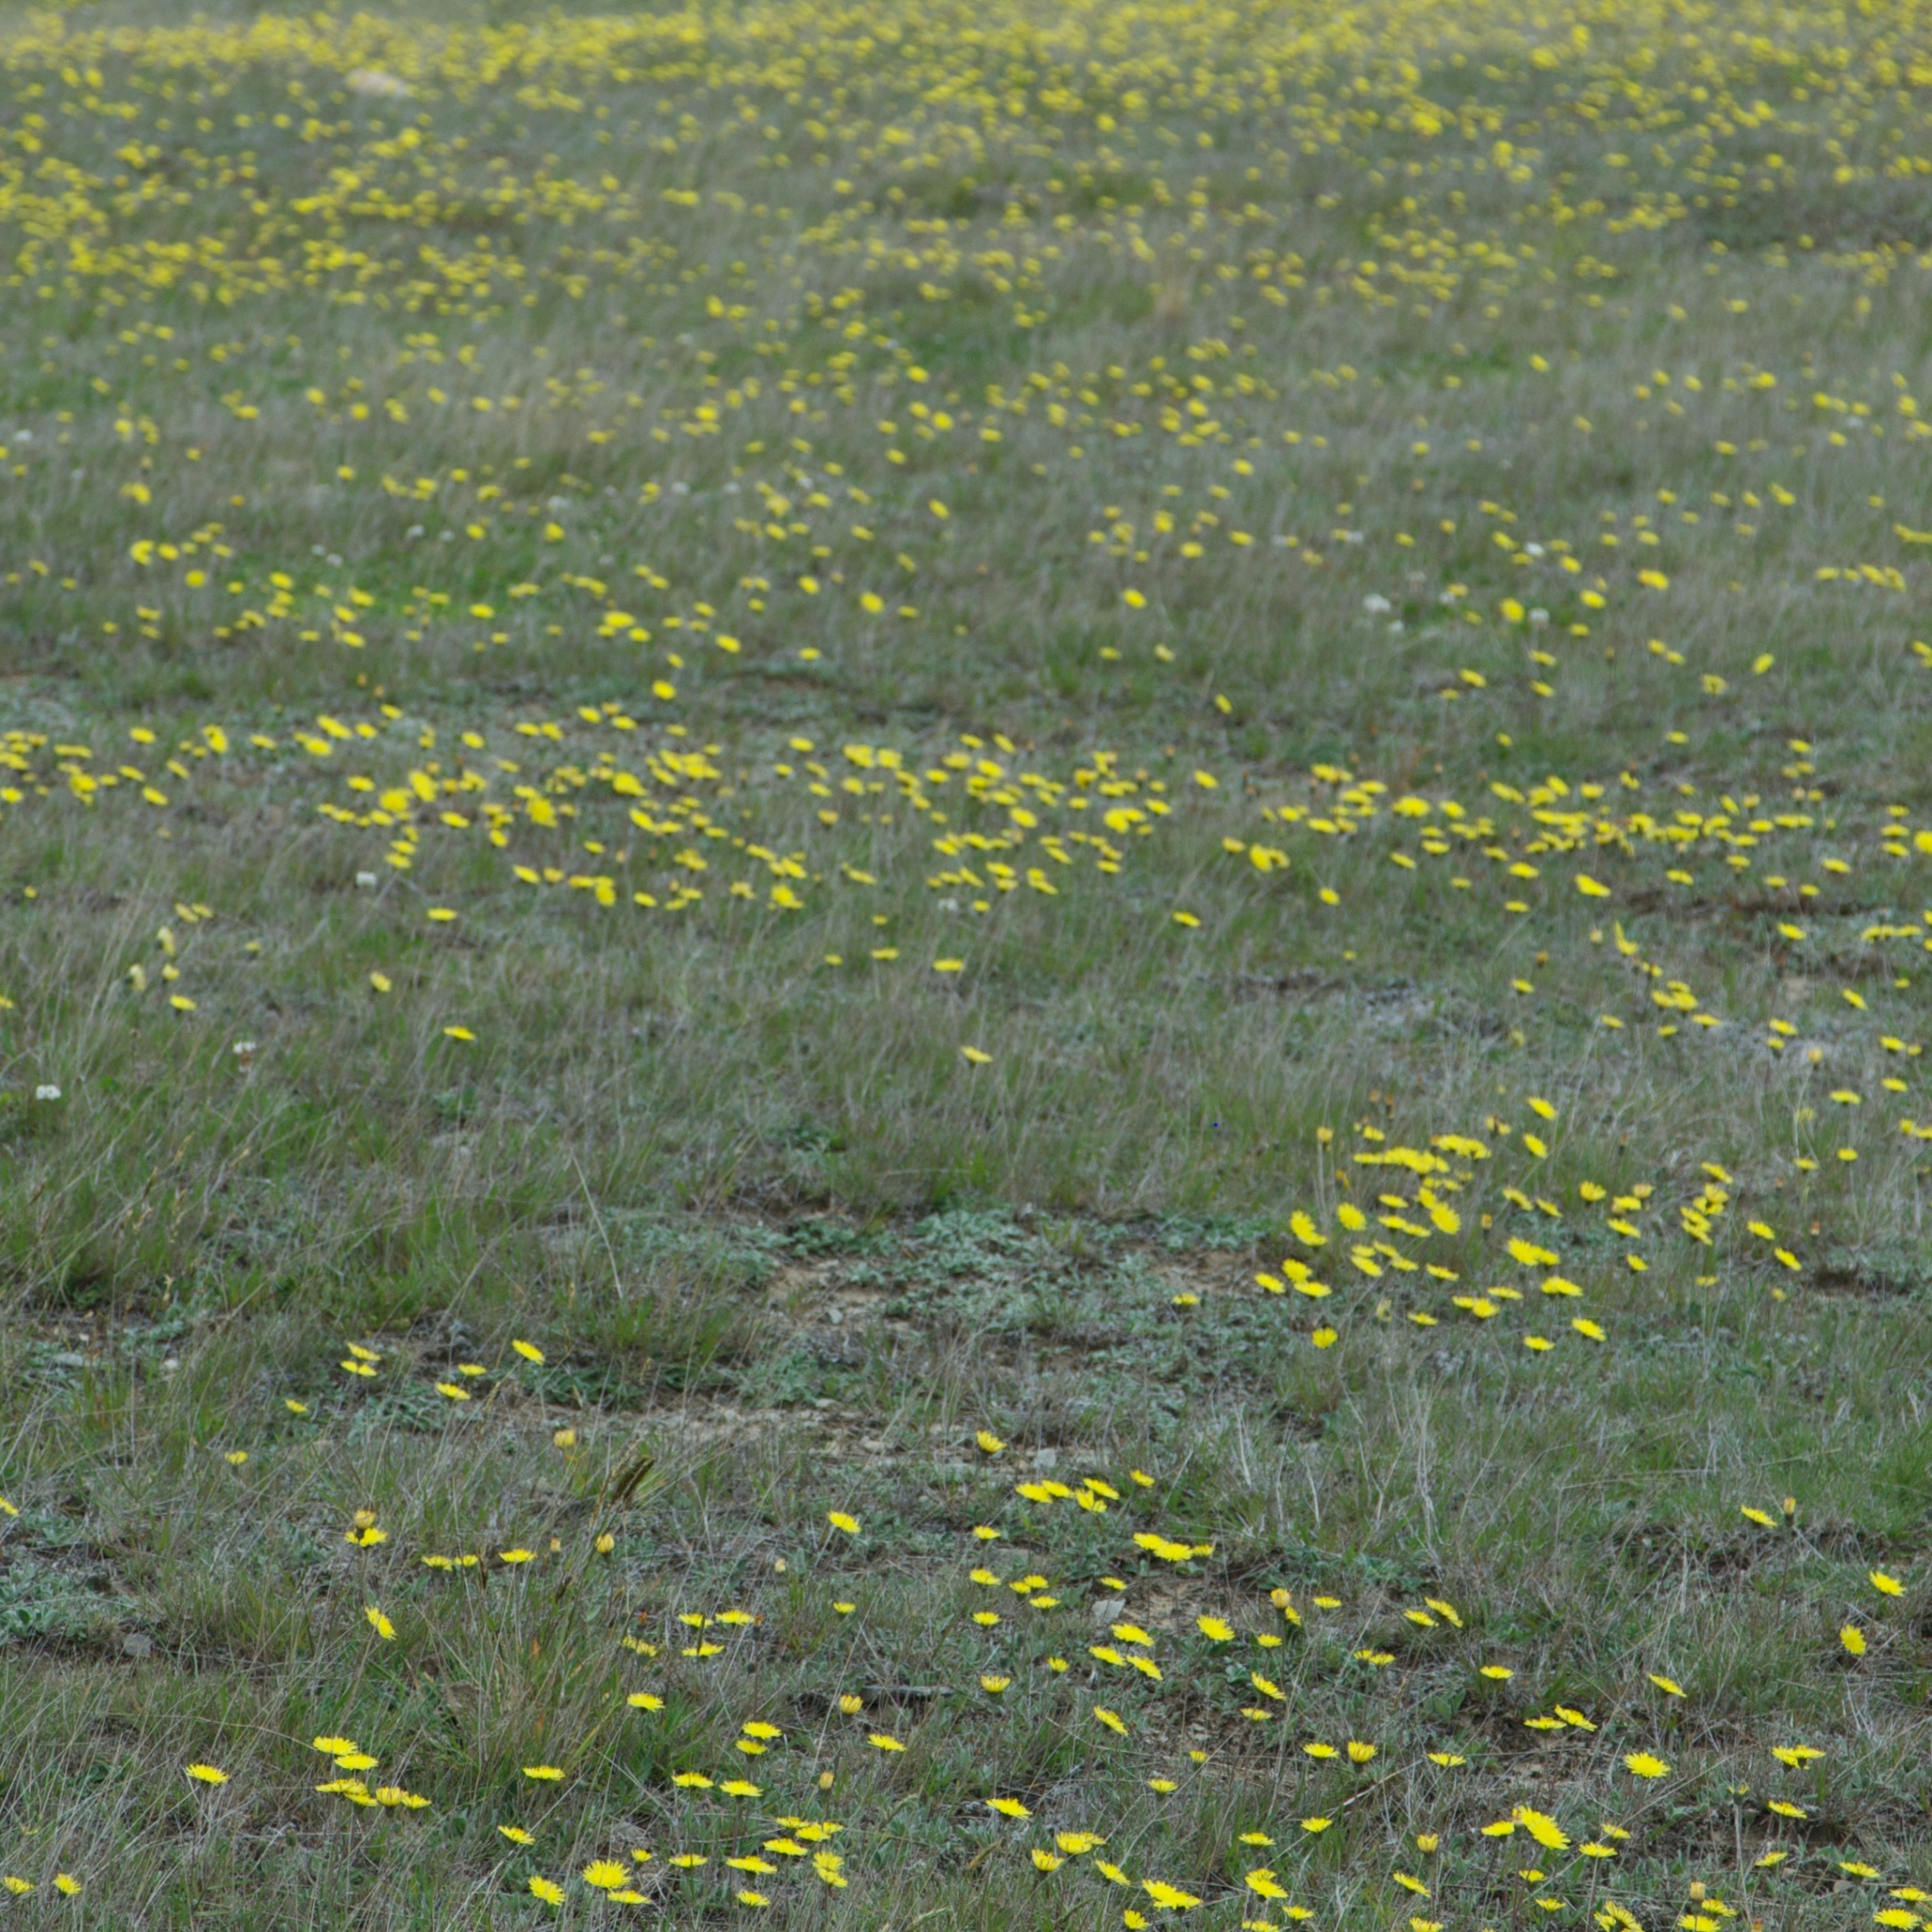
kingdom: Plantae
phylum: Tracheophyta
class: Magnoliopsida
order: Asterales
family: Asteraceae
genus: Pilosella
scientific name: Pilosella officinarum
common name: Mouse-ear hawkweed
